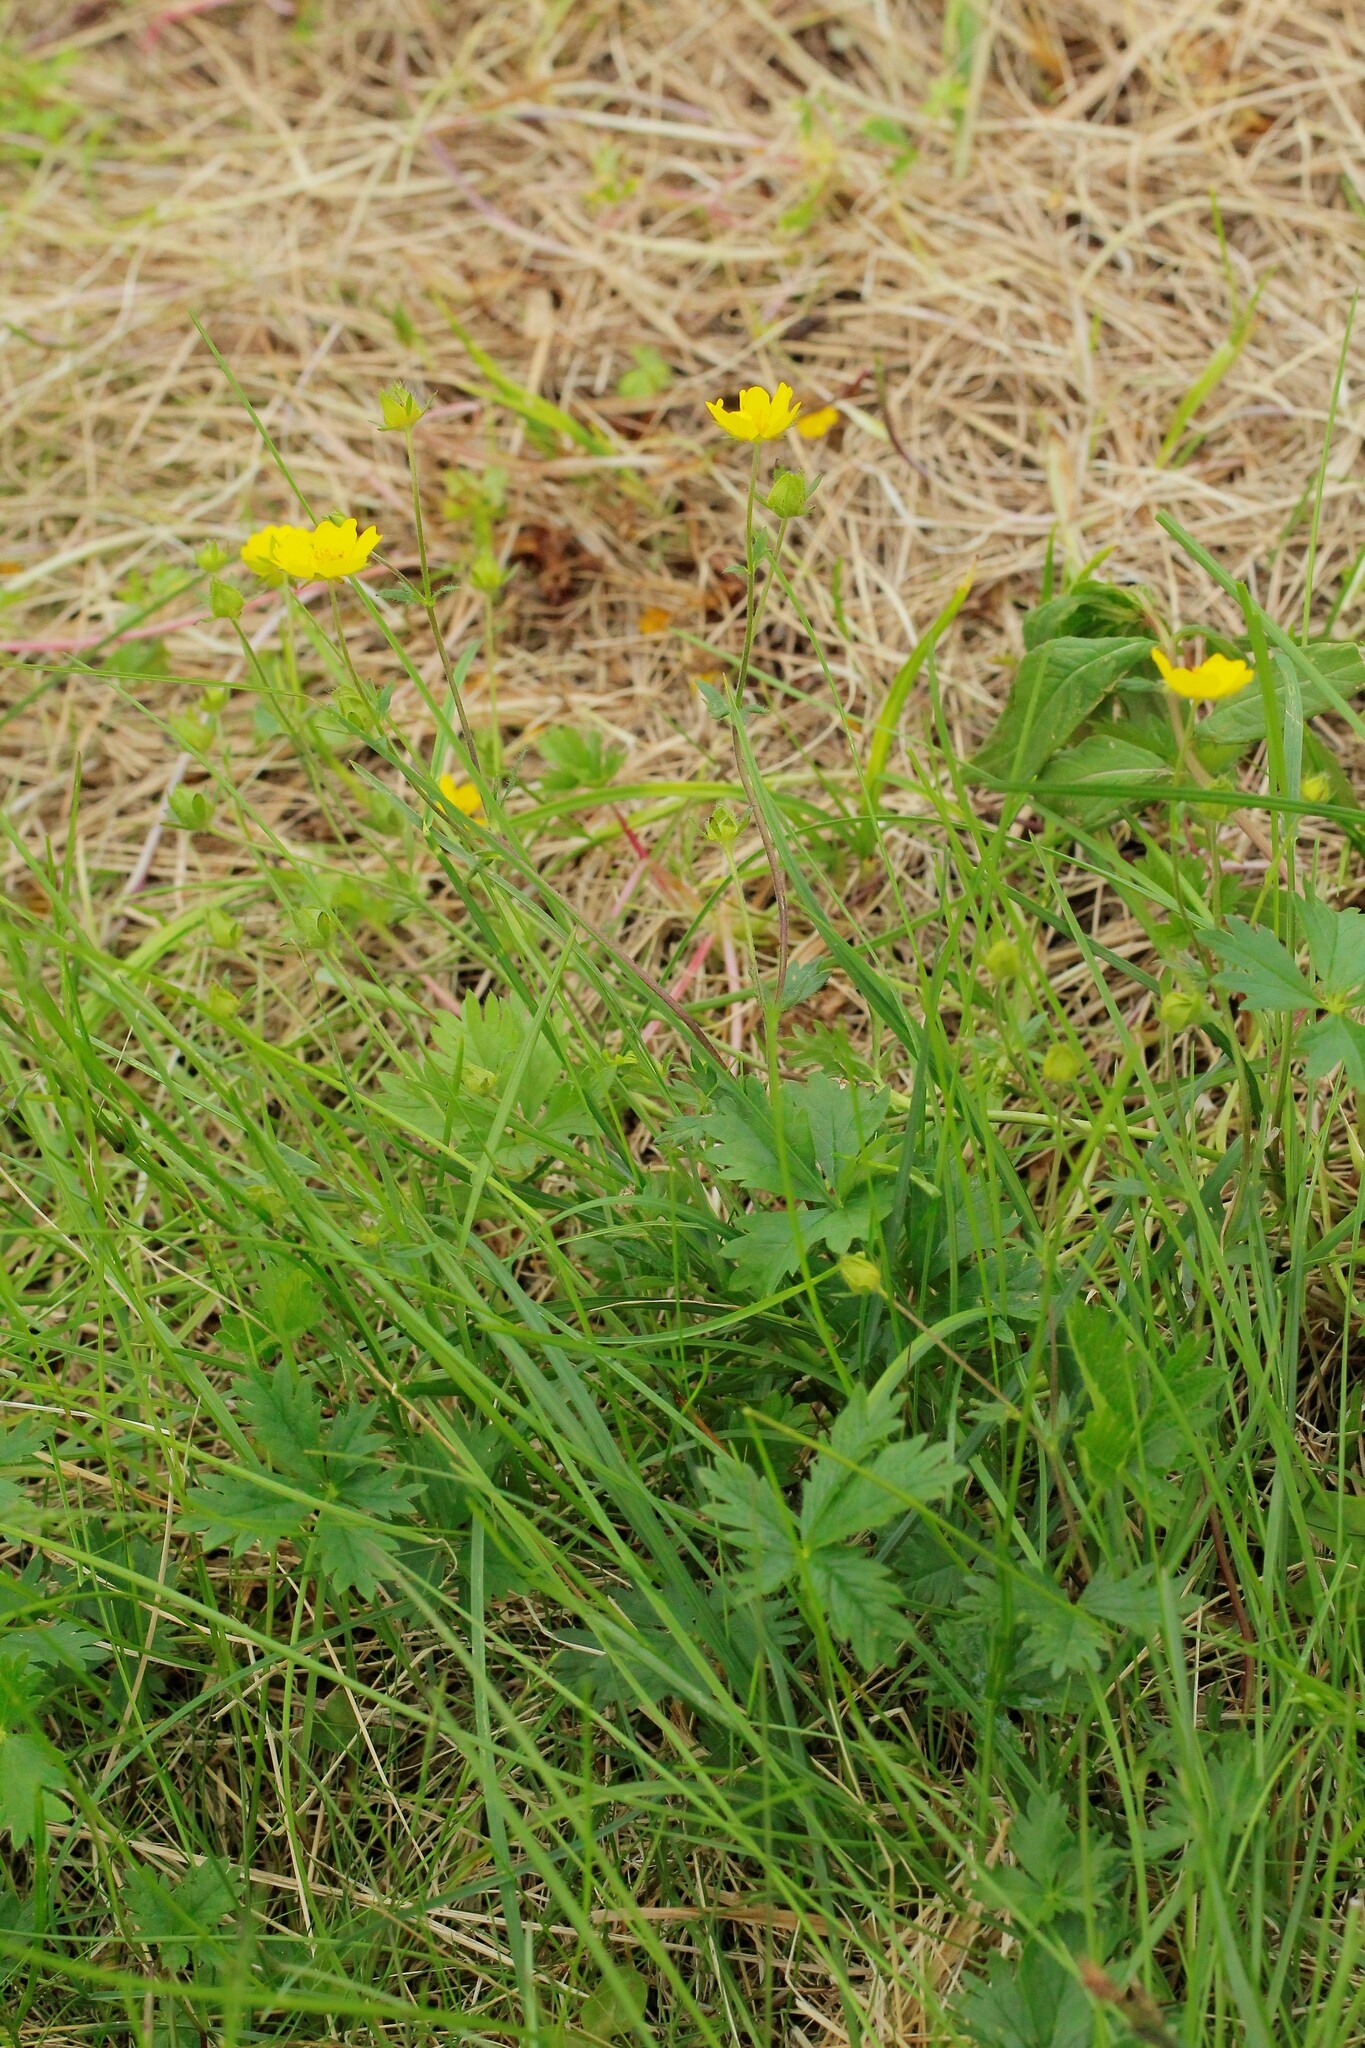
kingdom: Plantae
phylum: Tracheophyta
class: Magnoliopsida
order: Rosales
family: Rosaceae
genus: Potentilla
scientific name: Potentilla crantzii
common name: Alpine cinquefoil
